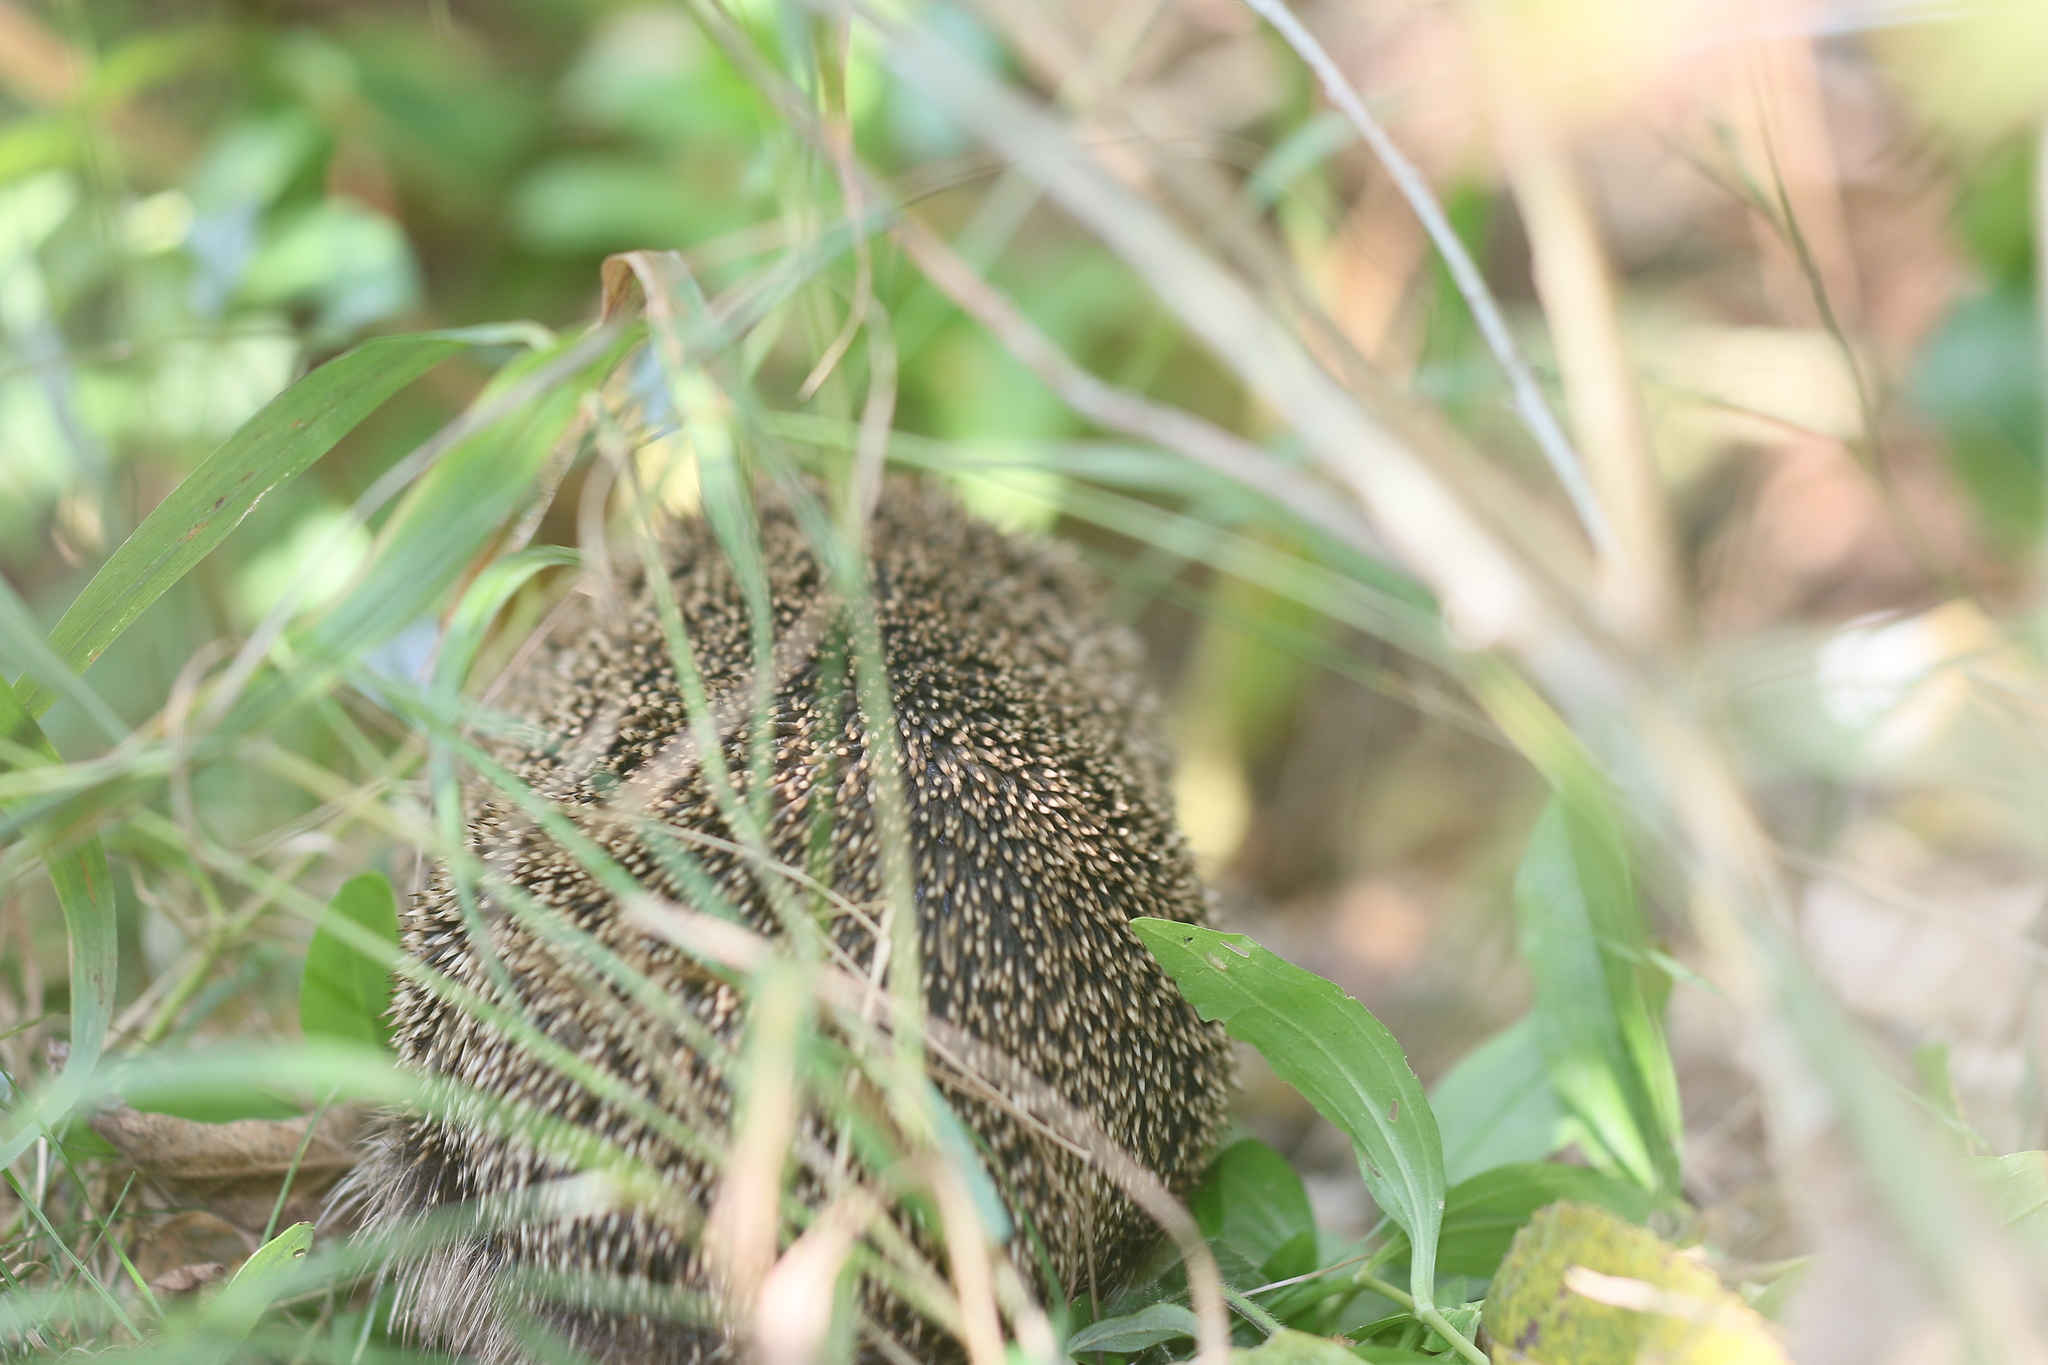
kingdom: Animalia
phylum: Chordata
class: Mammalia
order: Erinaceomorpha
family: Erinaceidae
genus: Erinaceus
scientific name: Erinaceus europaeus
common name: West european hedgehog
